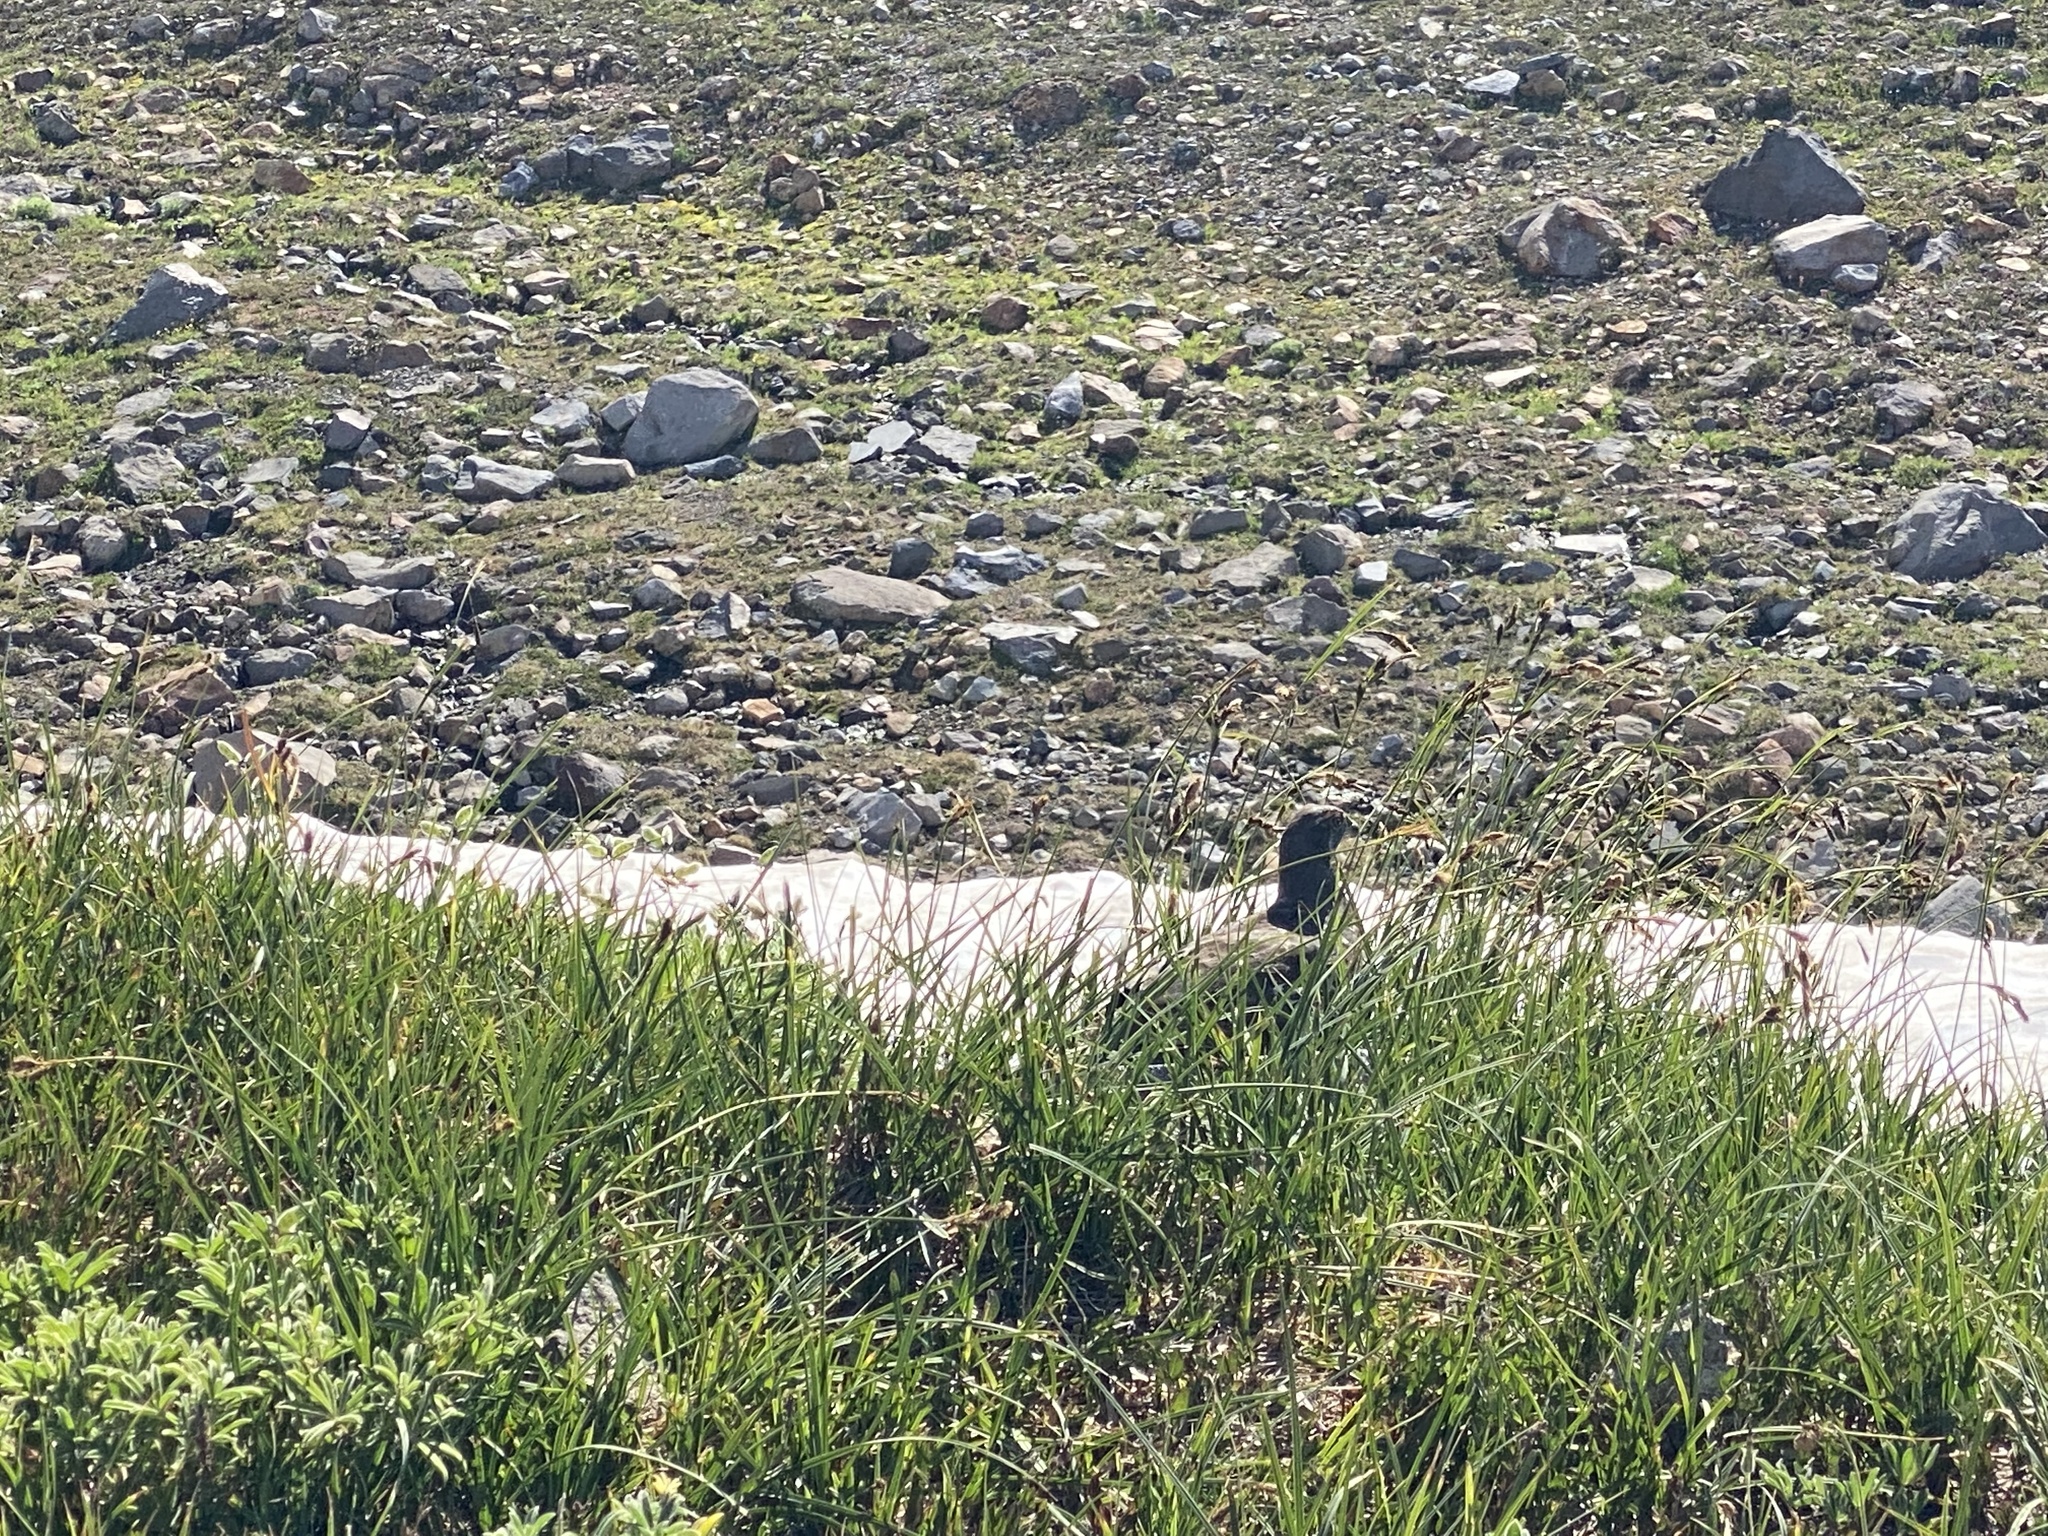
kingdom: Animalia
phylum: Chordata
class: Aves
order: Galliformes
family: Phasianidae
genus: Dendragapus
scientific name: Dendragapus fuliginosus
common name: Sooty grouse
